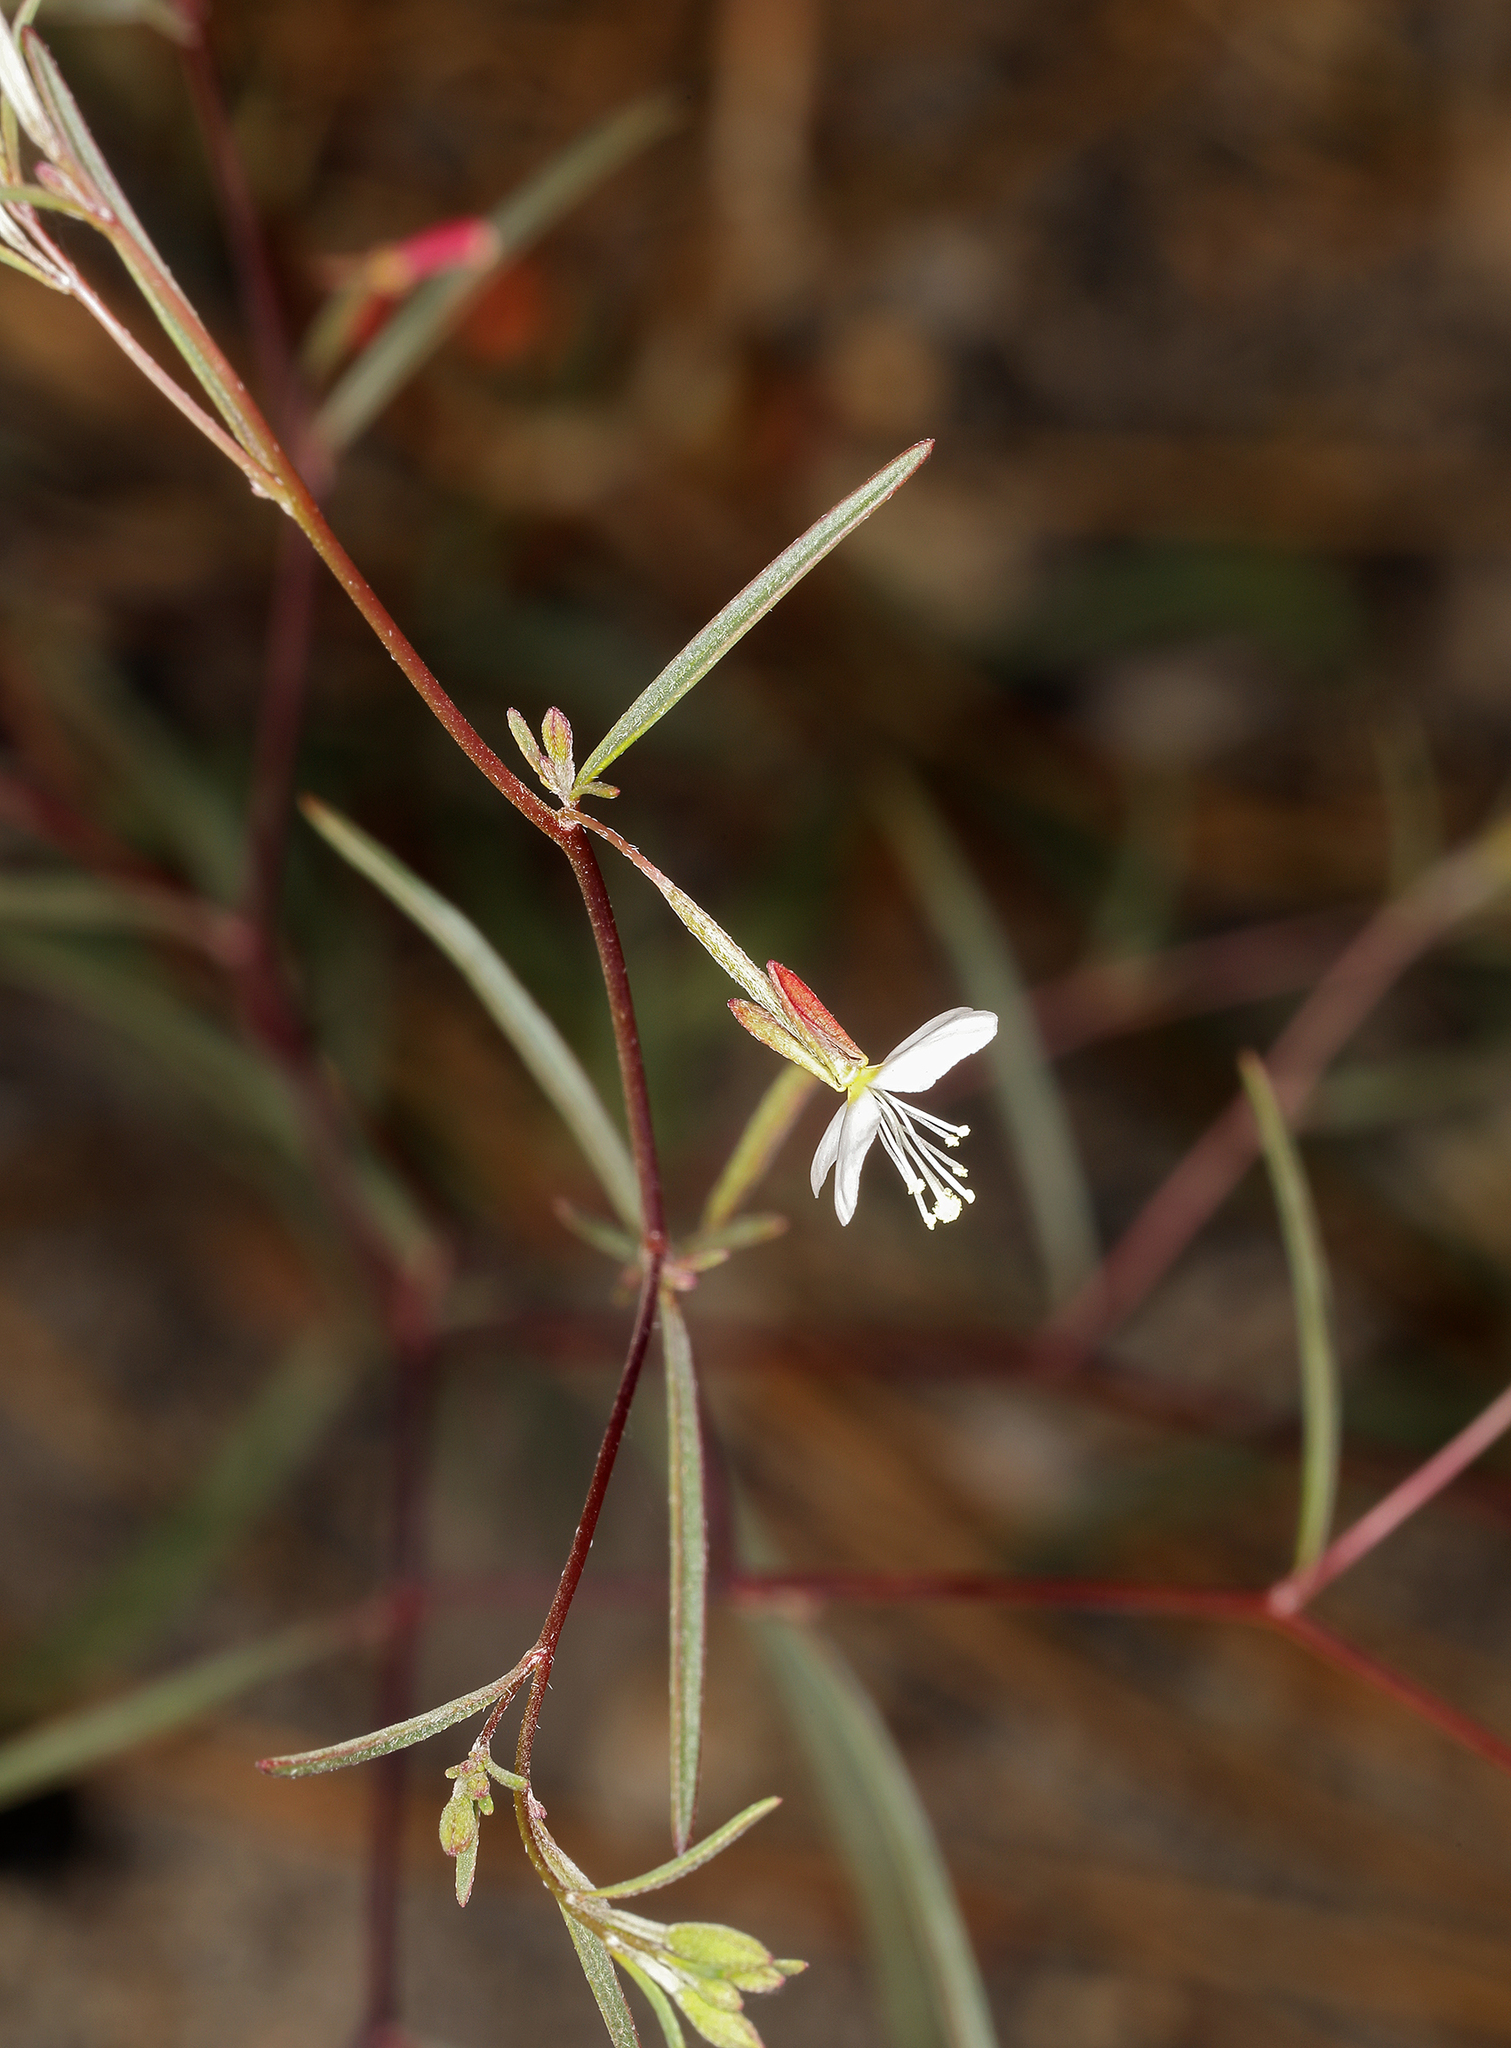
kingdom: Plantae
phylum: Tracheophyta
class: Magnoliopsida
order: Myrtales
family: Onagraceae
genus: Gayophytum
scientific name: Gayophytum diffusum
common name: Big-flowered groundsmoke
